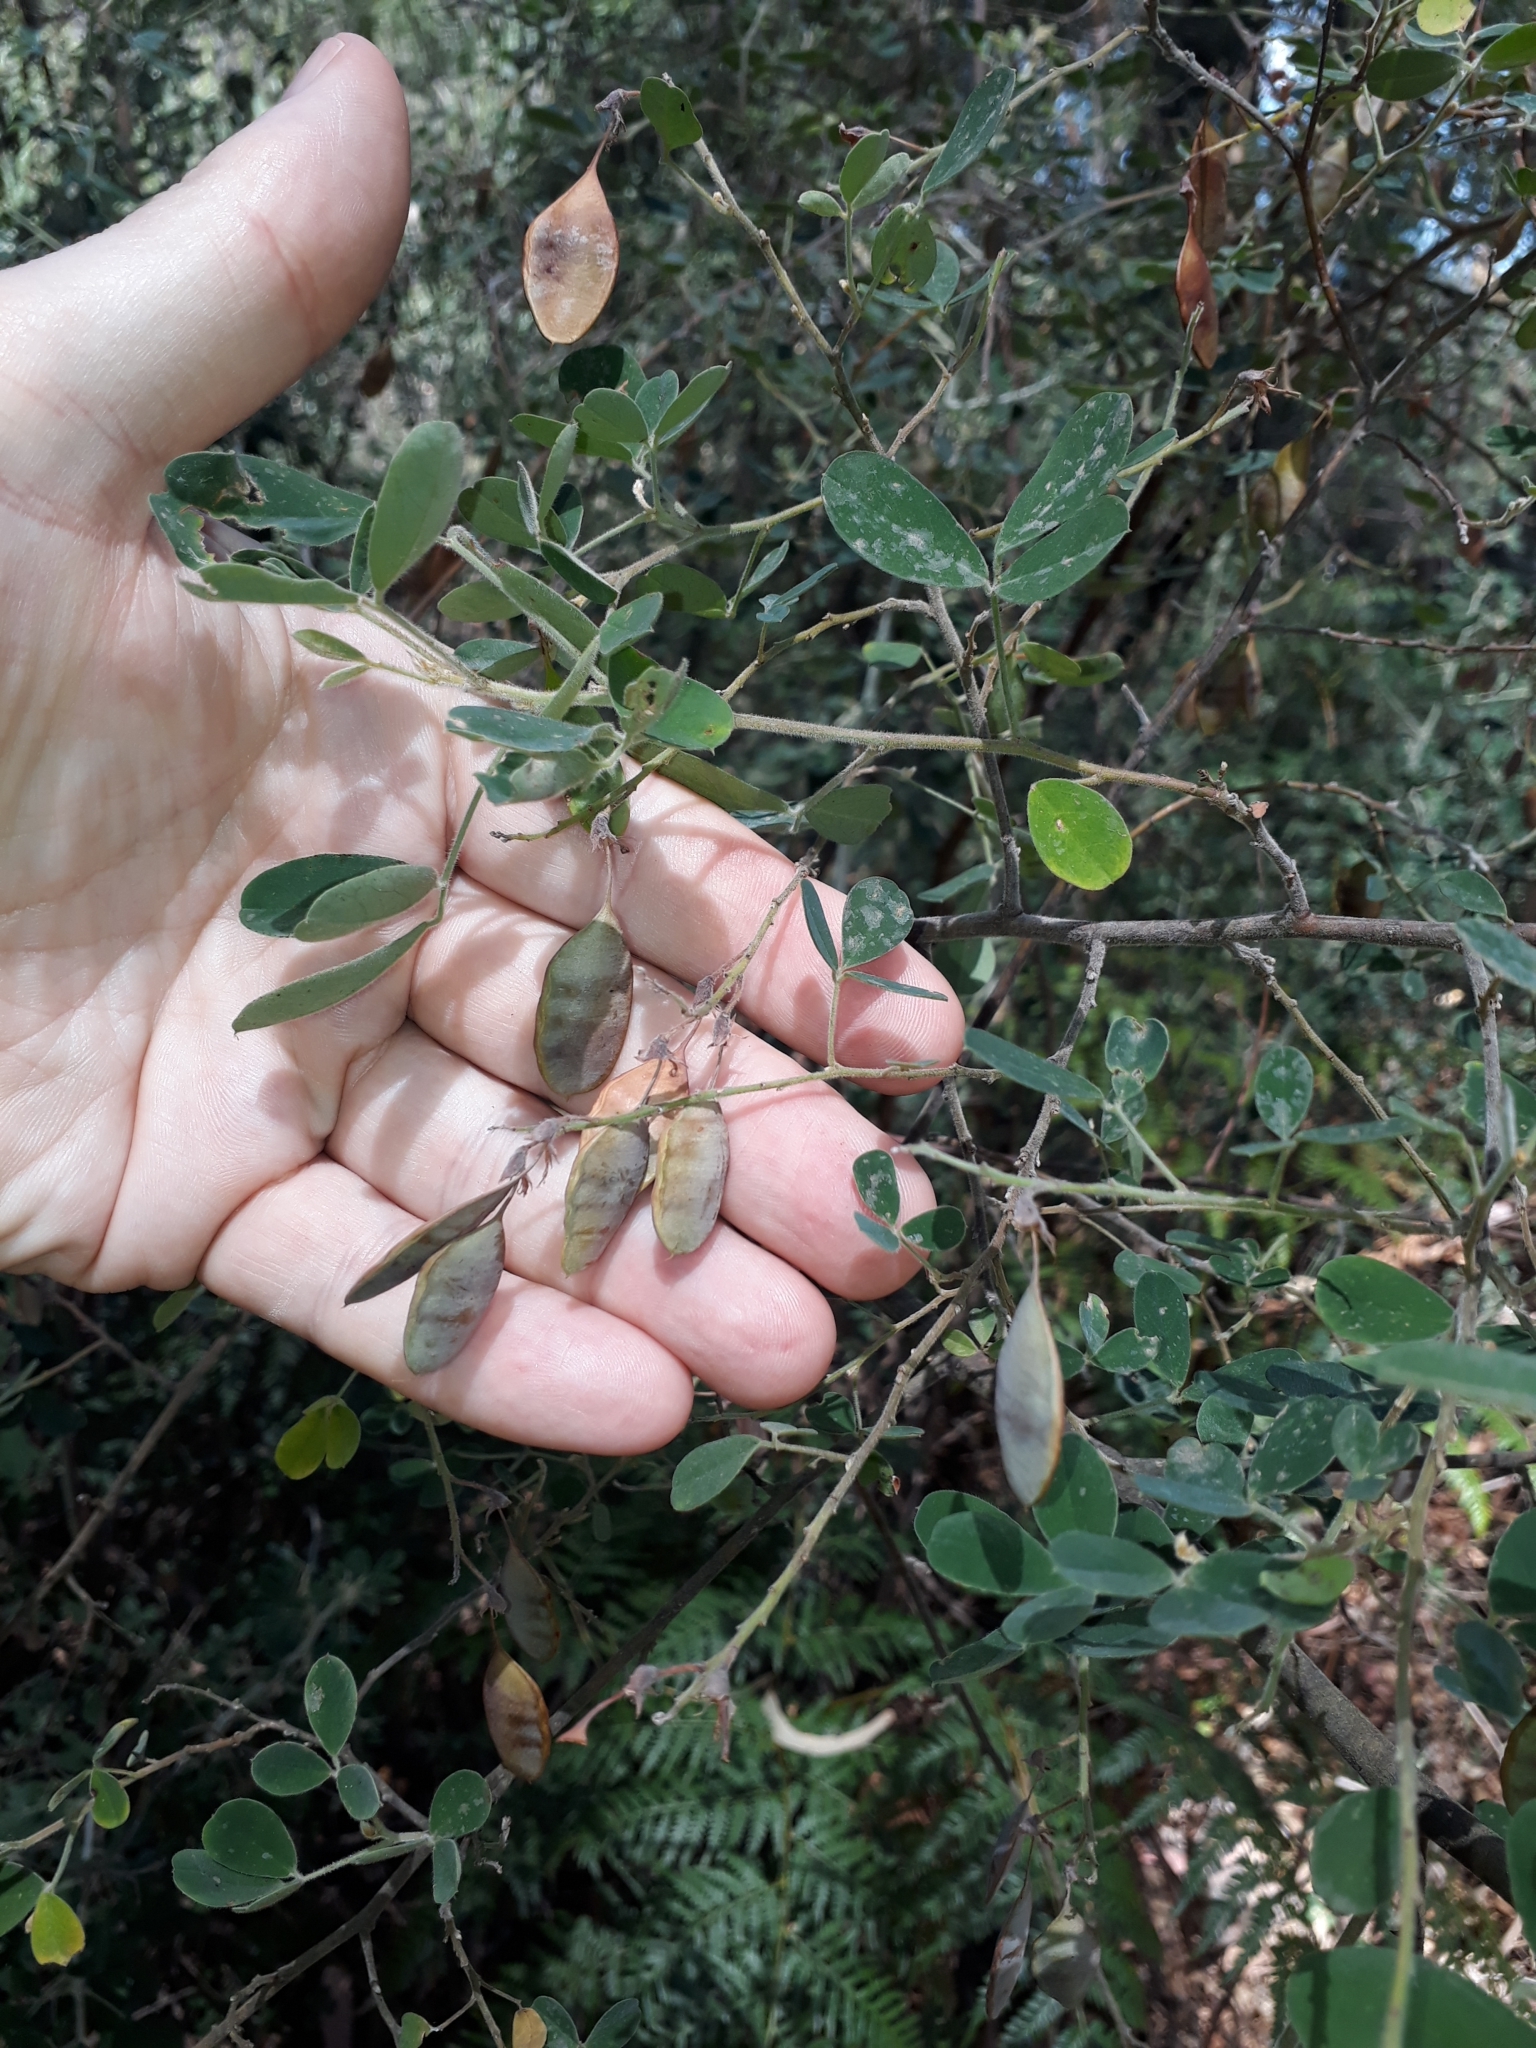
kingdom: Plantae
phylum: Tracheophyta
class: Magnoliopsida
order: Fabales
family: Fabaceae
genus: Goodia
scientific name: Goodia lotifolia
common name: Cloverleaf-poison
